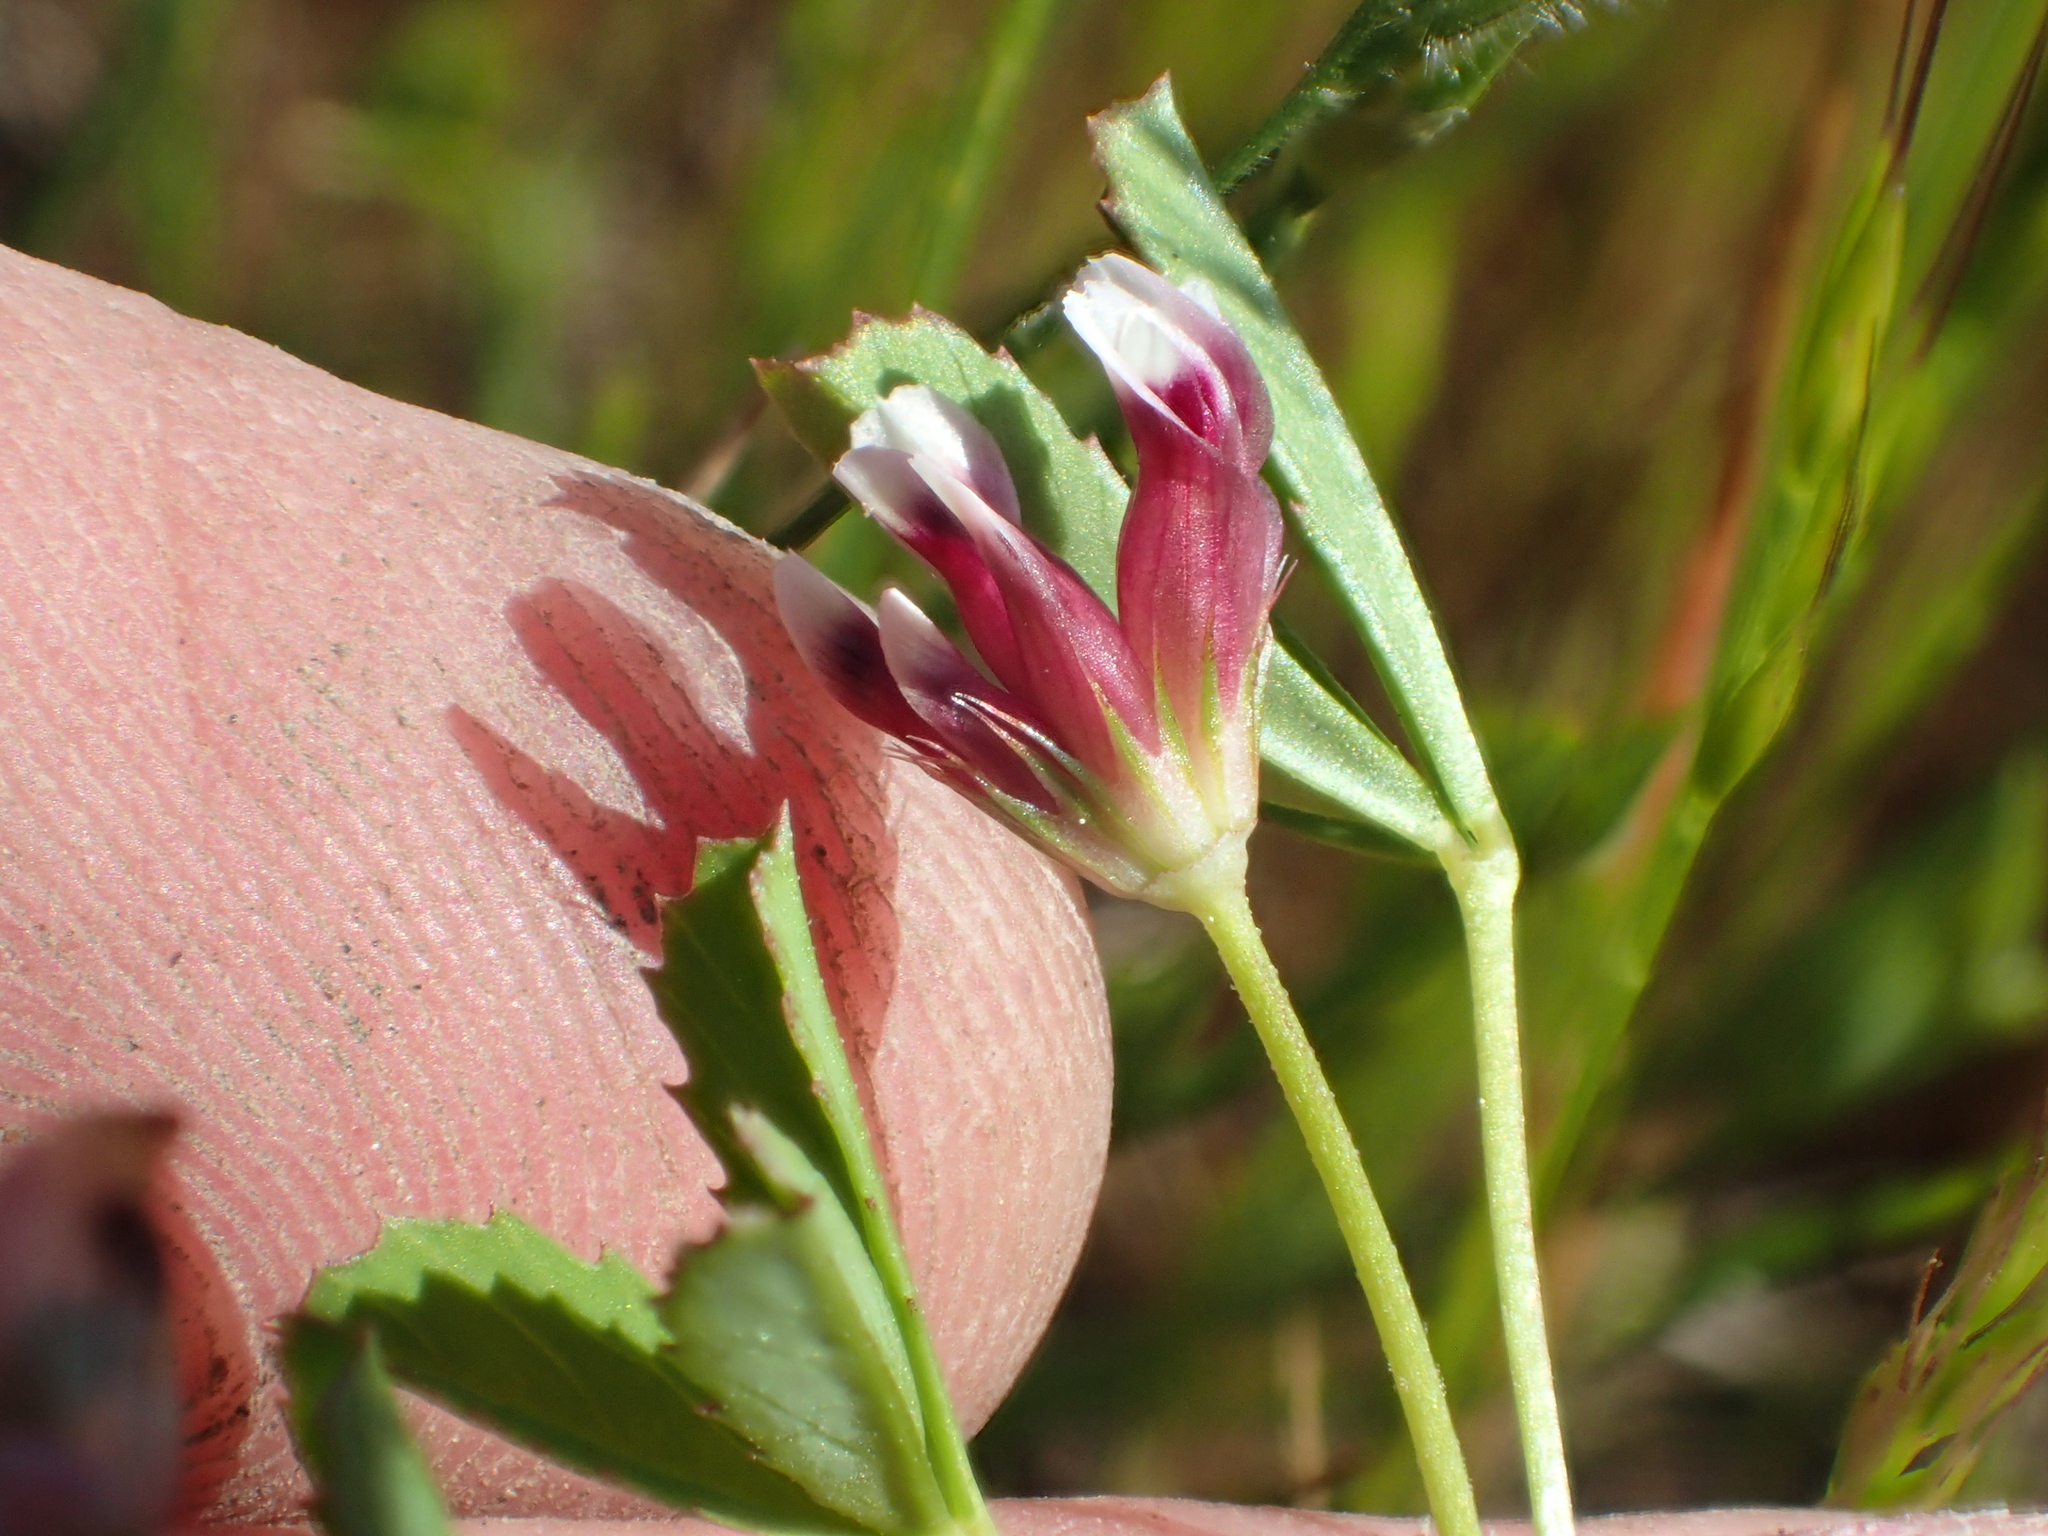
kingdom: Plantae
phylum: Tracheophyta
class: Magnoliopsida
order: Fabales
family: Fabaceae
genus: Trifolium
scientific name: Trifolium depauperatum
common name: Poverty clover
